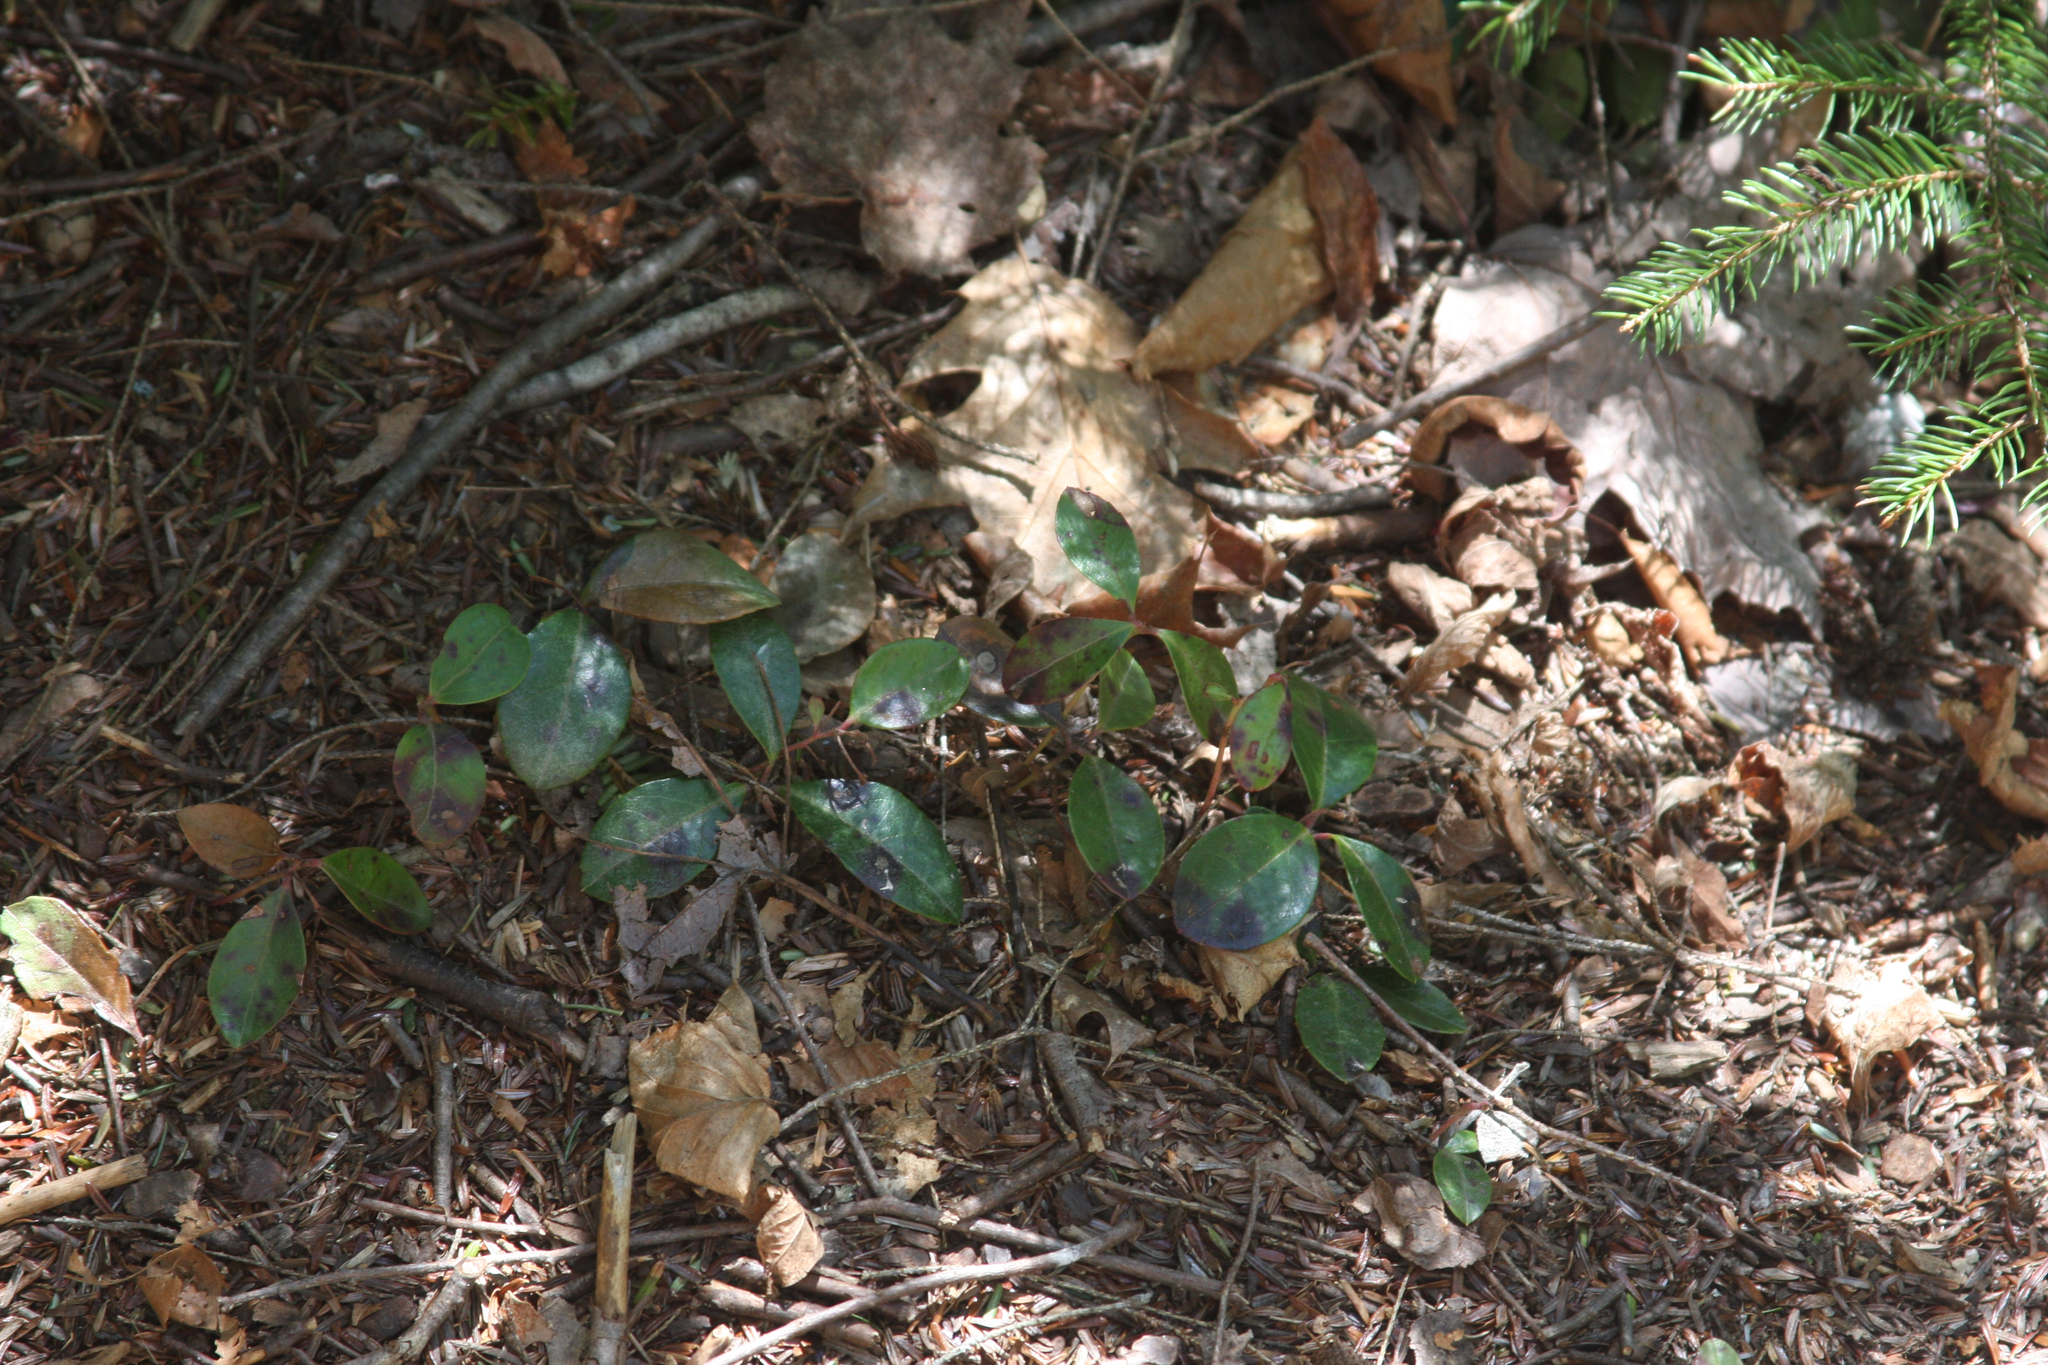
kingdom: Plantae
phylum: Tracheophyta
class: Magnoliopsida
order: Ericales
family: Ericaceae
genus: Gaultheria
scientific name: Gaultheria procumbens
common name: Checkerberry
